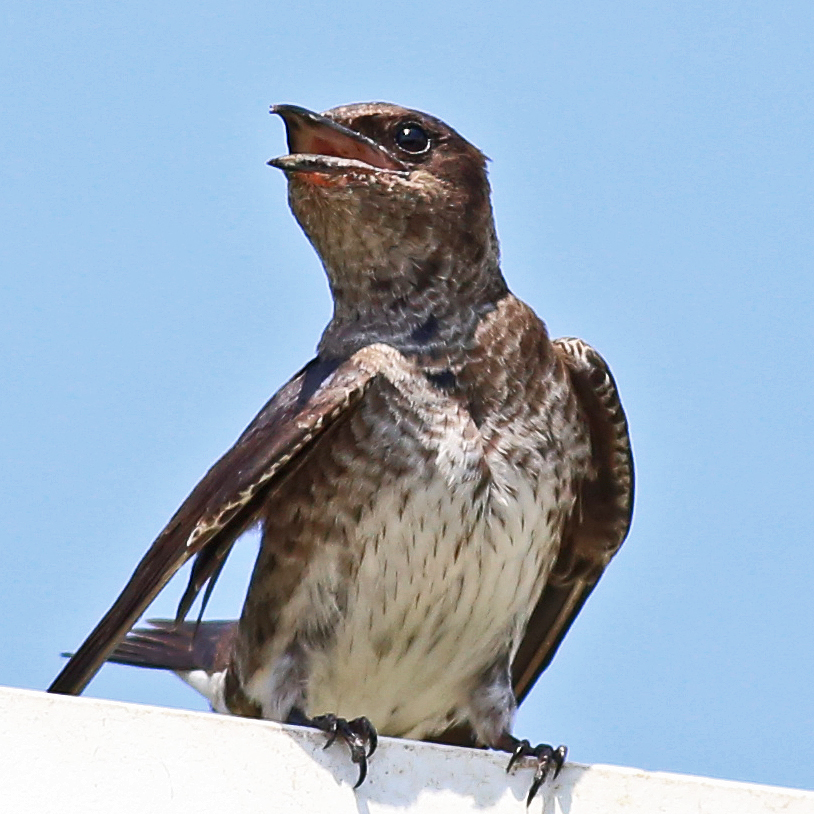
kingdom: Animalia
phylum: Chordata
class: Aves
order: Passeriformes
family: Hirundinidae
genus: Progne
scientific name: Progne subis
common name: Purple martin
